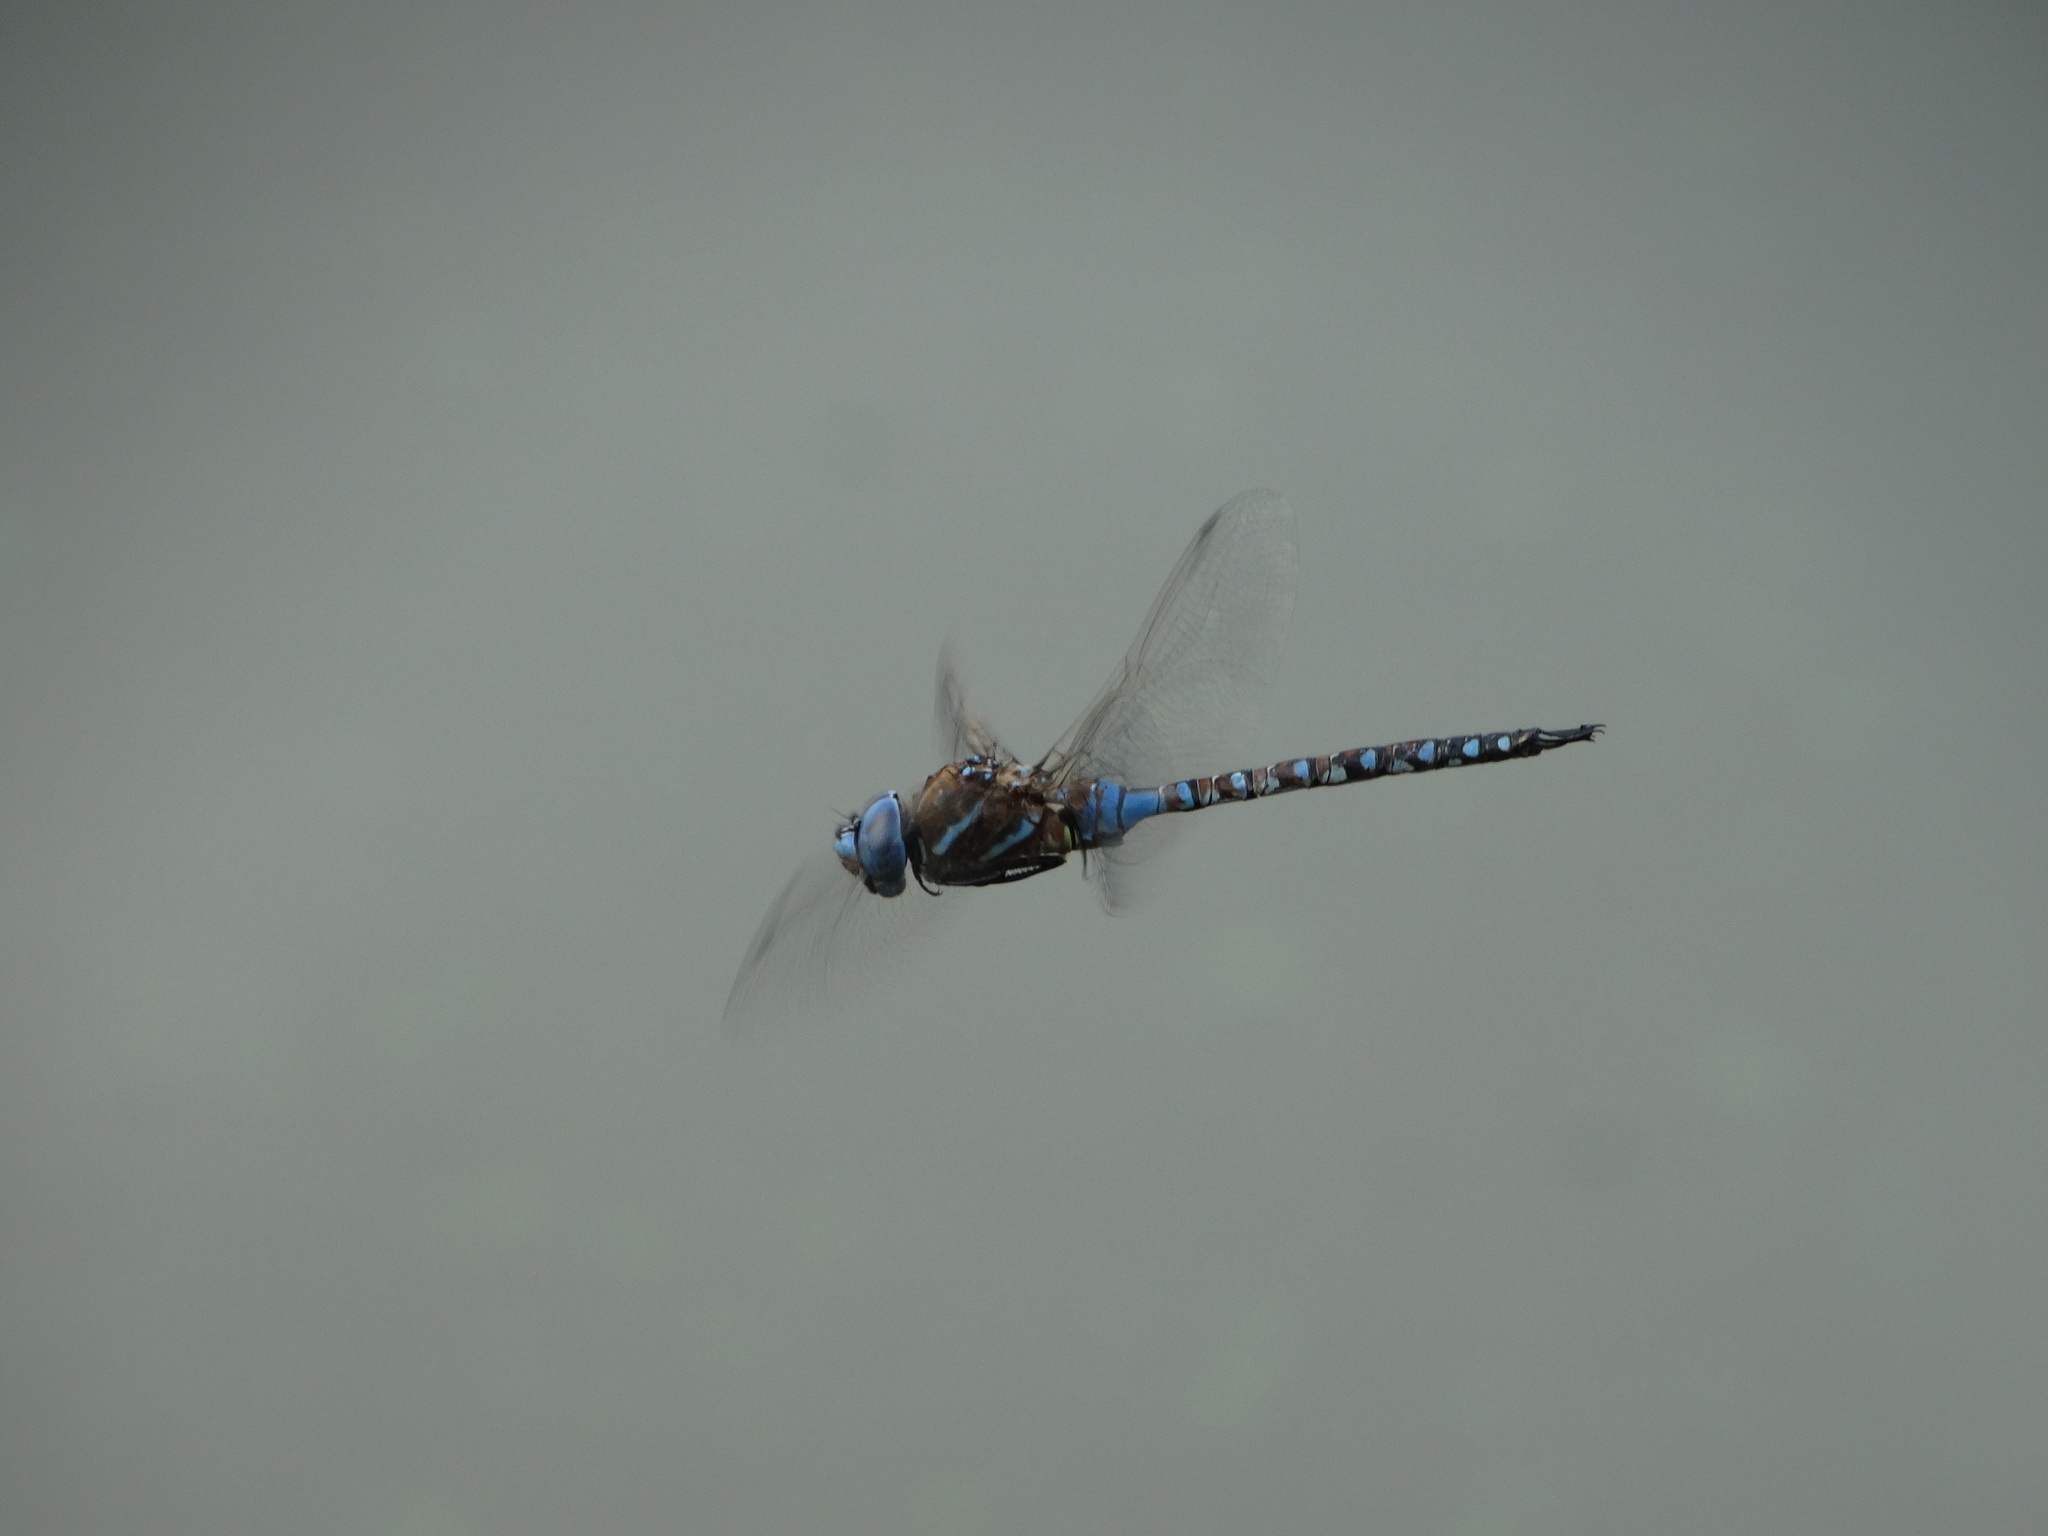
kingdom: Animalia
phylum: Arthropoda
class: Insecta
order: Odonata
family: Aeshnidae
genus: Rhionaeschna
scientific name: Rhionaeschna multicolor
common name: Blue-eyed darner
